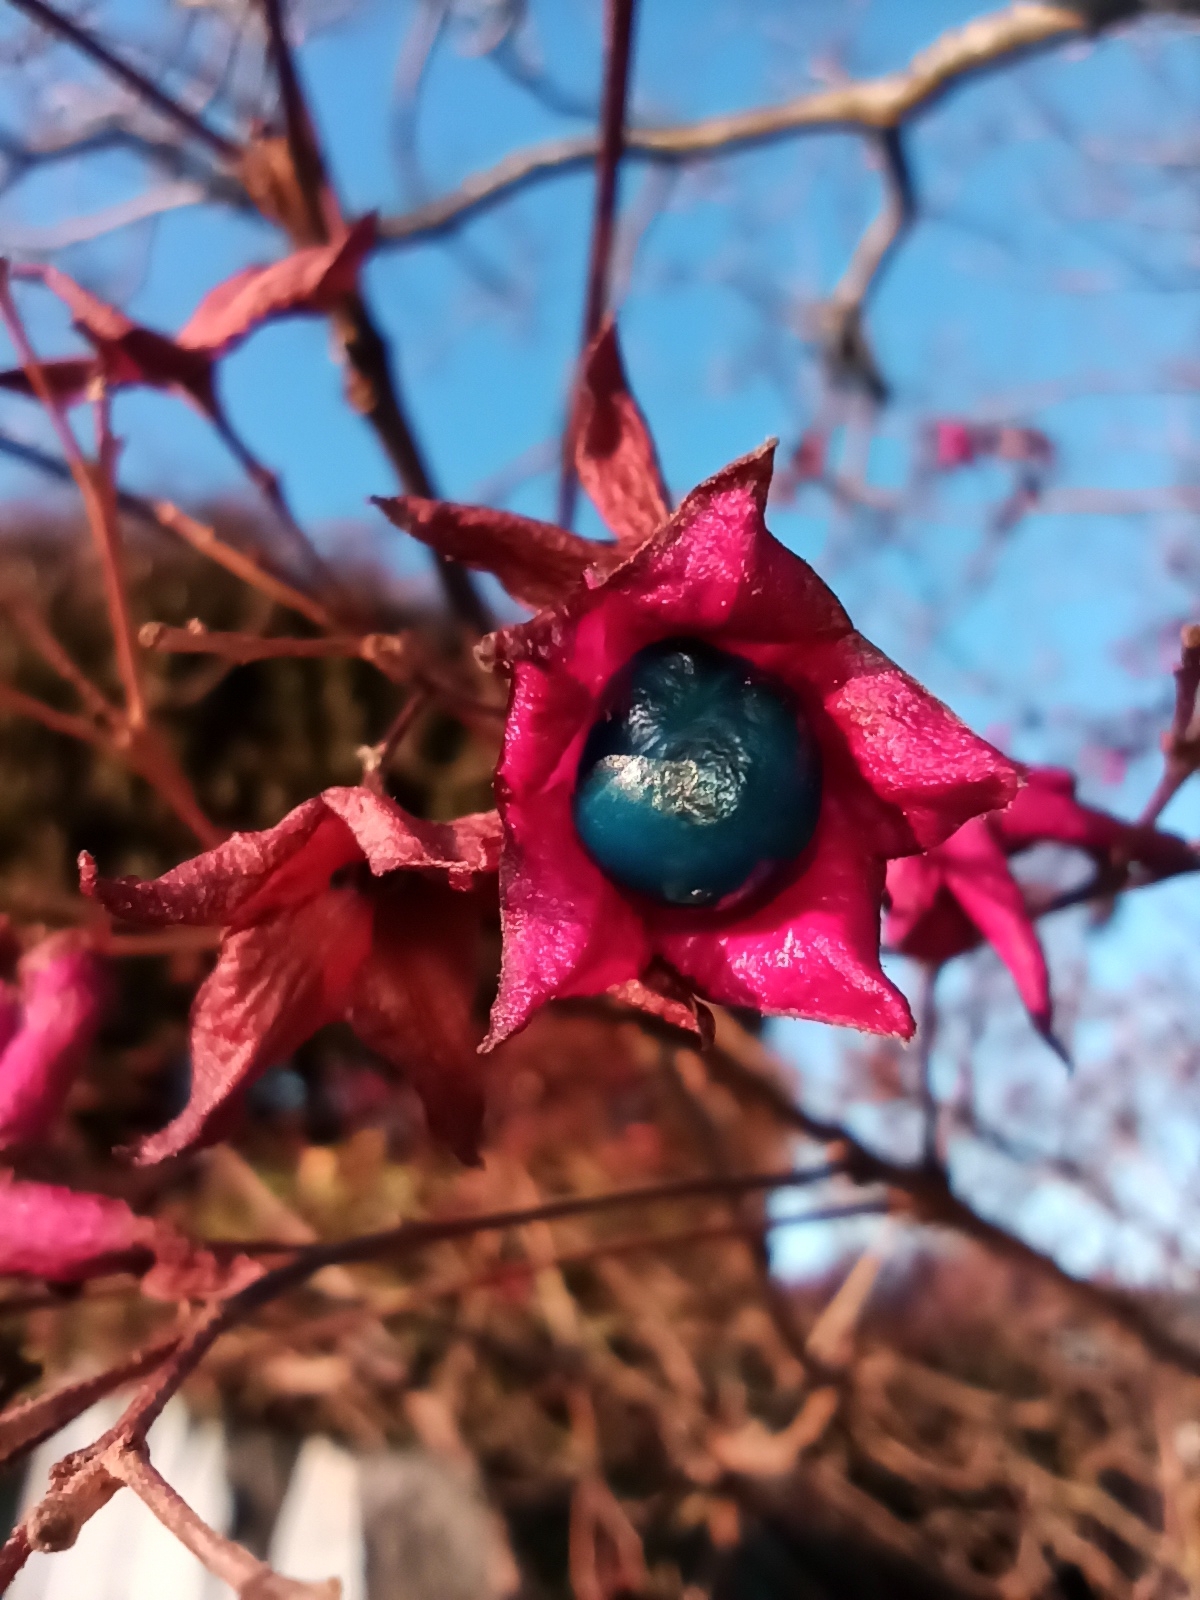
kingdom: Plantae
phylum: Tracheophyta
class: Magnoliopsida
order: Lamiales
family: Lamiaceae
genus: Clerodendrum
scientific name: Clerodendrum trichotomum
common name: Harlequin glorybower
